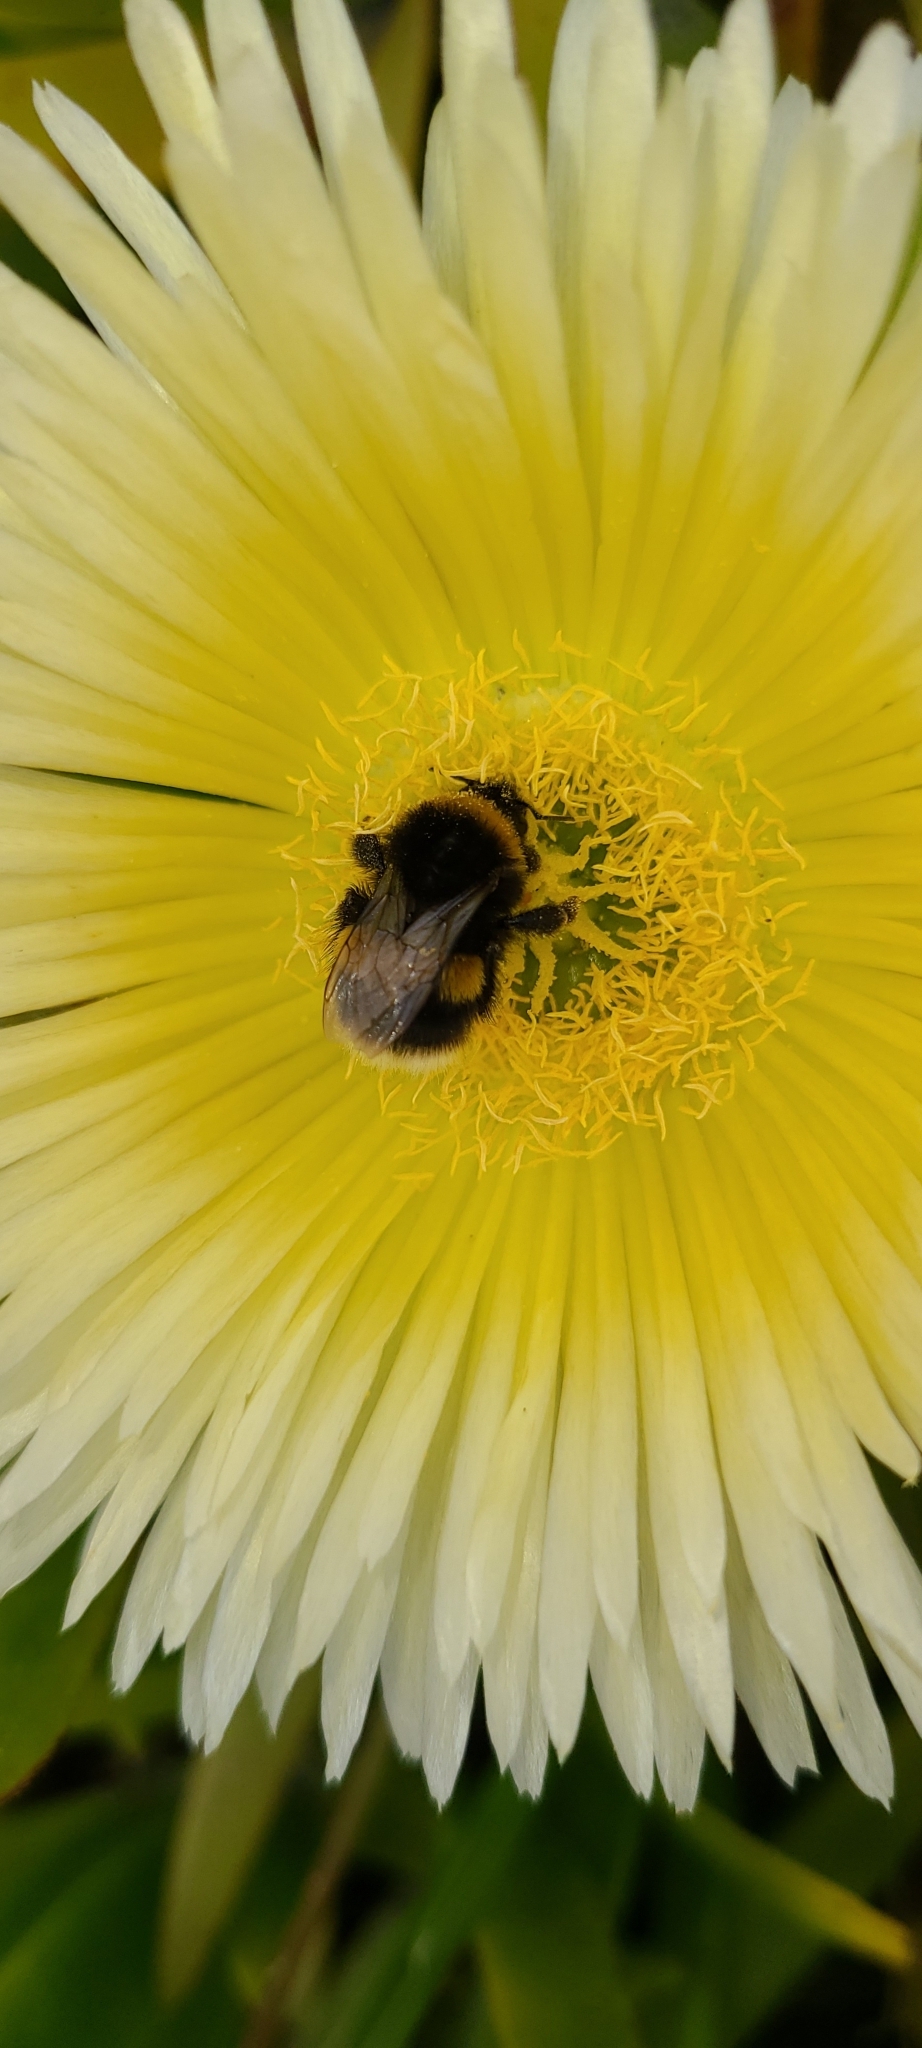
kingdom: Animalia
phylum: Arthropoda
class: Insecta
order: Hymenoptera
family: Apidae
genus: Bombus
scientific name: Bombus terrestris
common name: Buff-tailed bumblebee
